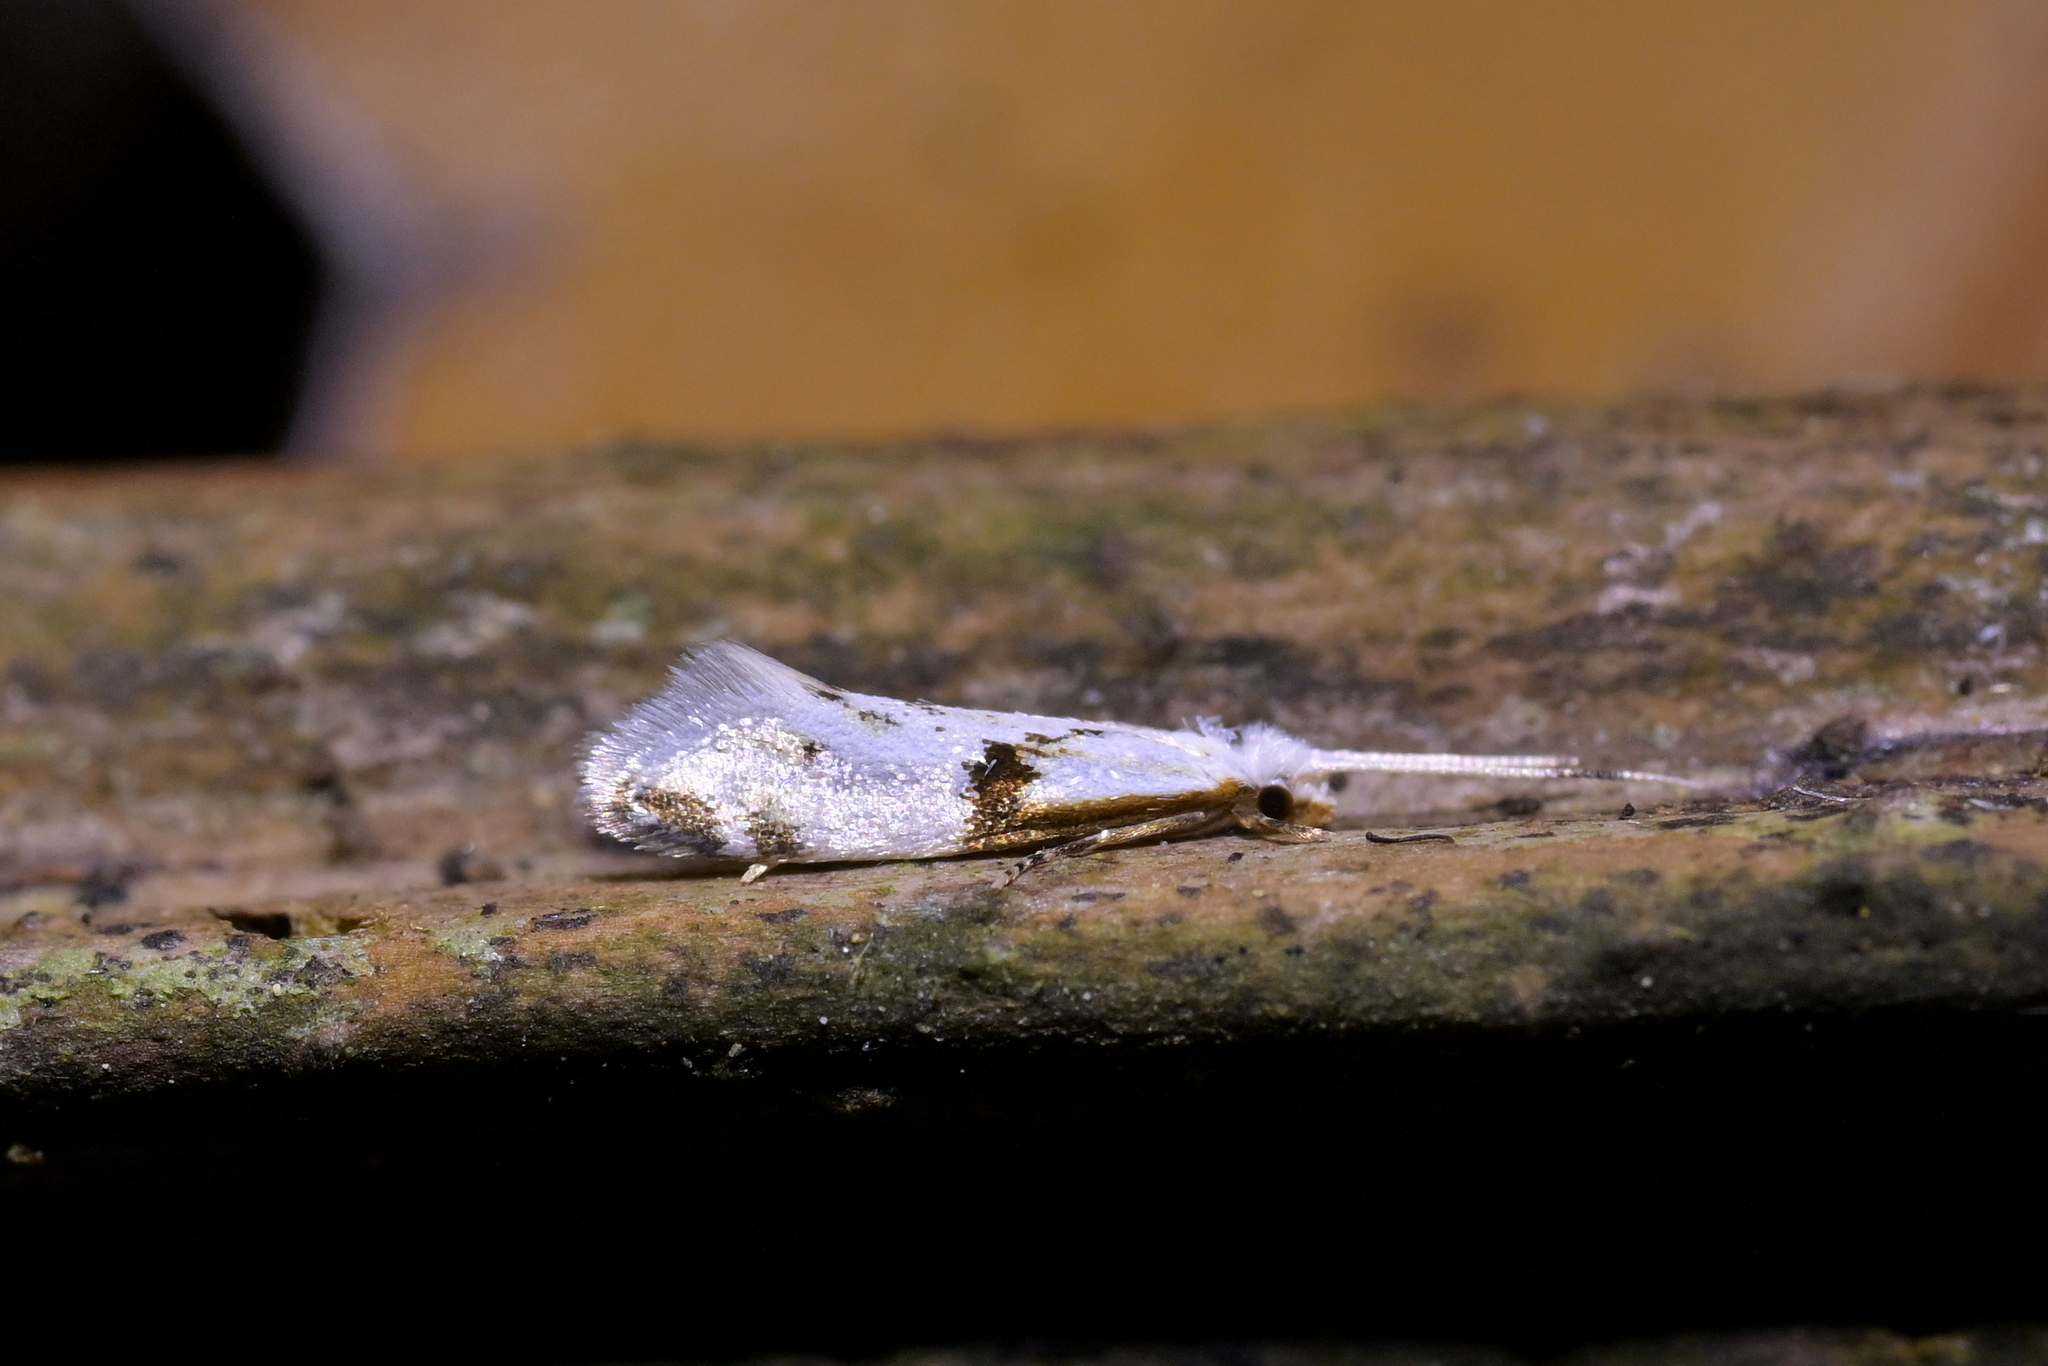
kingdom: Animalia
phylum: Arthropoda
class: Insecta
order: Lepidoptera
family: Tineidae
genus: Sagephora
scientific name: Sagephora felix
